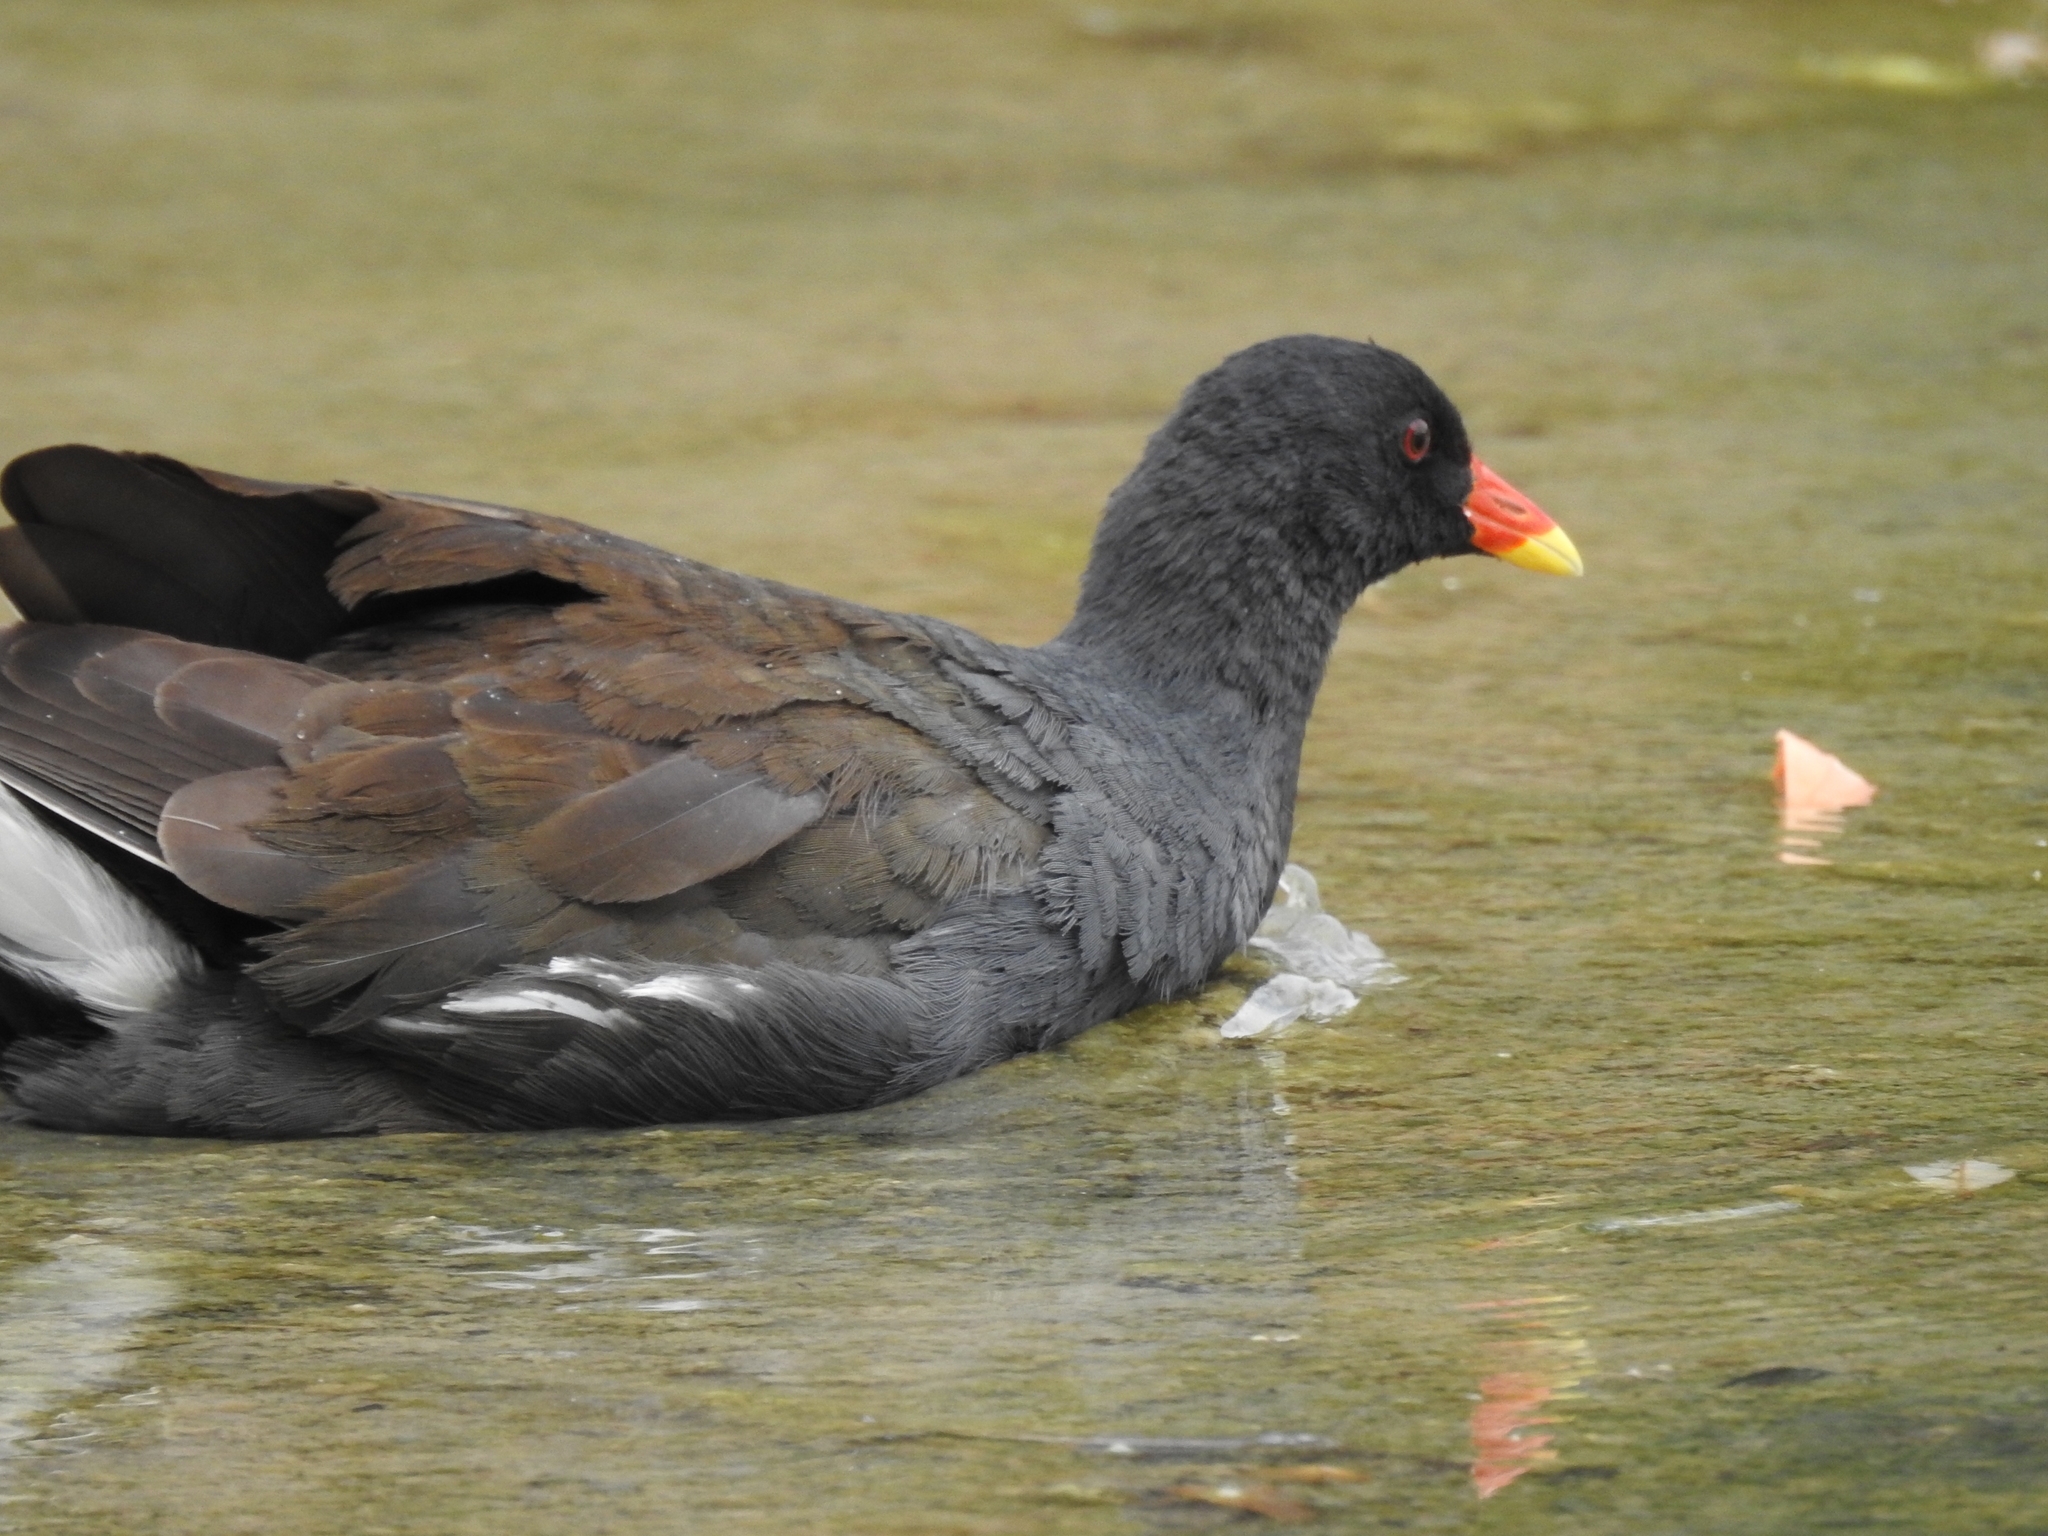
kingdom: Animalia
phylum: Chordata
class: Aves
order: Gruiformes
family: Rallidae
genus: Gallinula
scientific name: Gallinula chloropus
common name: Common moorhen
